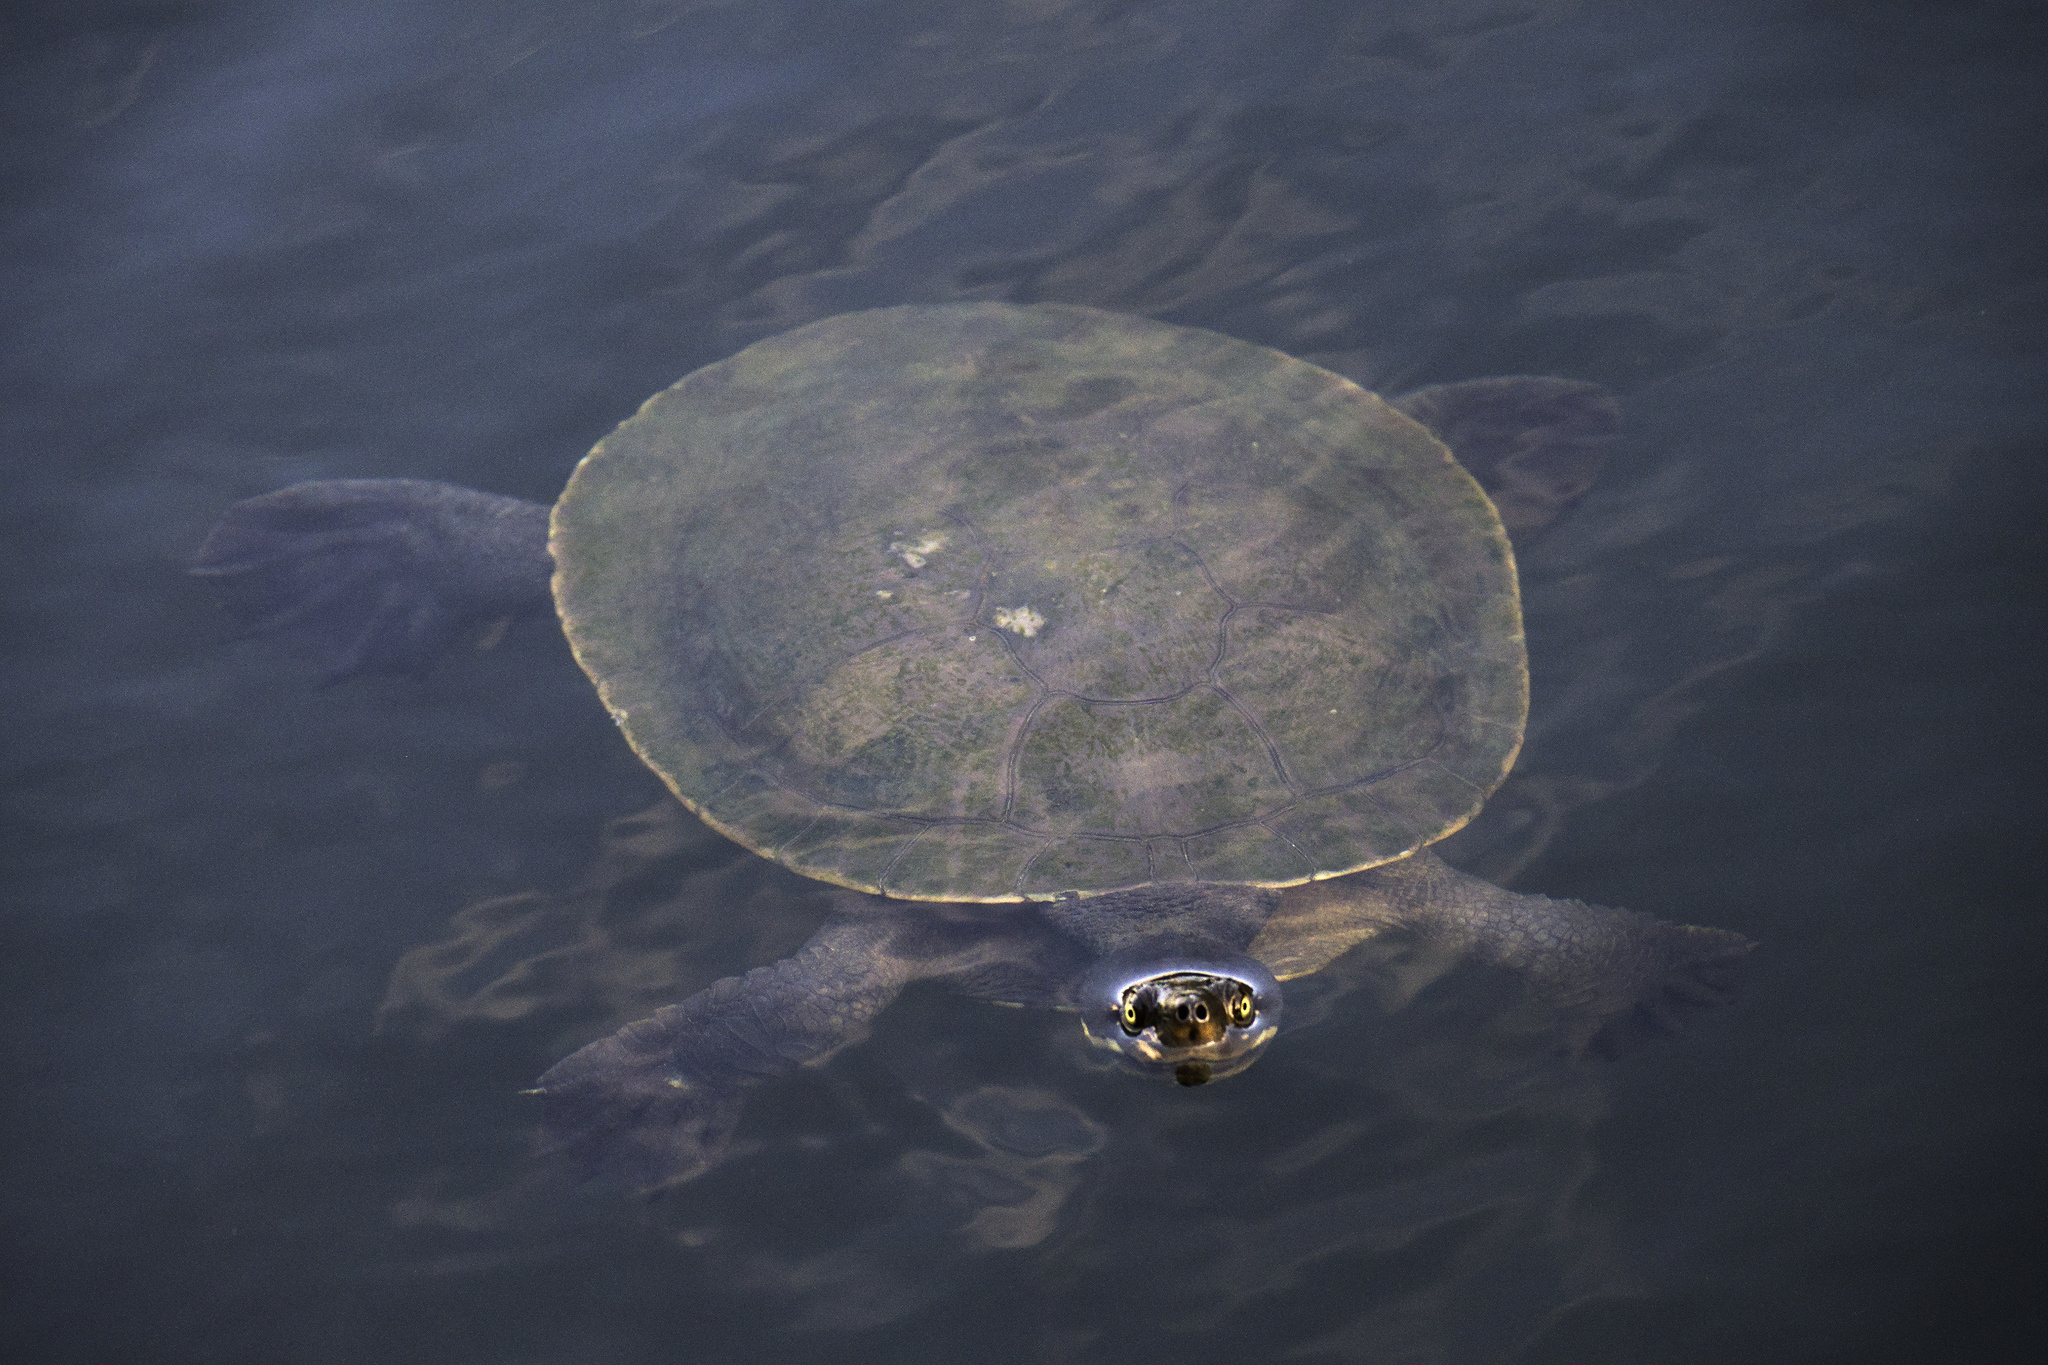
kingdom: Animalia
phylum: Chordata
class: Testudines
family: Chelidae
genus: Emydura
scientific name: Emydura macquarii
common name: Murray river turtle
